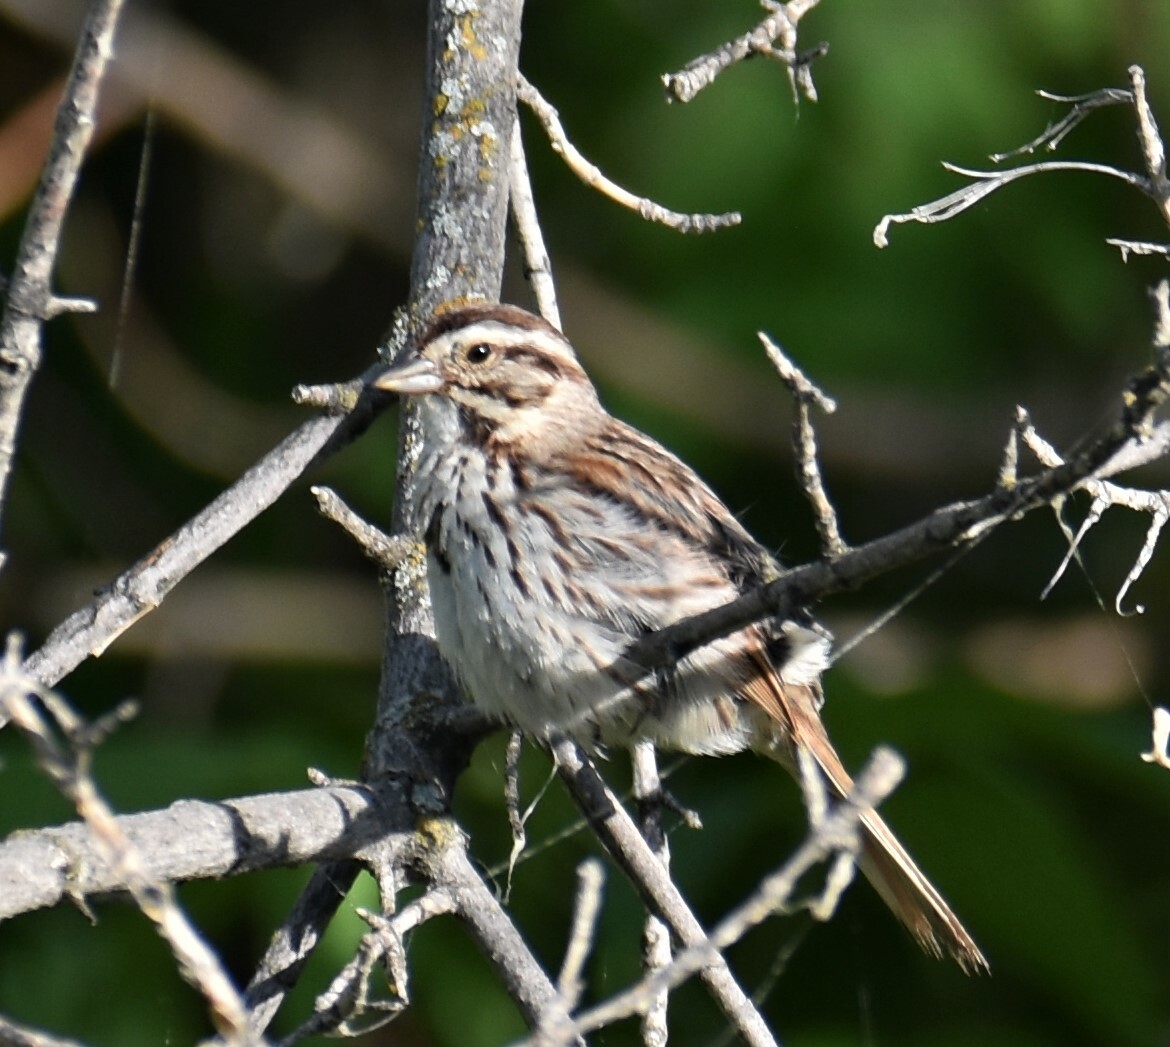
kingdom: Animalia
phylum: Chordata
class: Aves
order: Passeriformes
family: Passerellidae
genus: Melospiza
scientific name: Melospiza melodia
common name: Song sparrow
